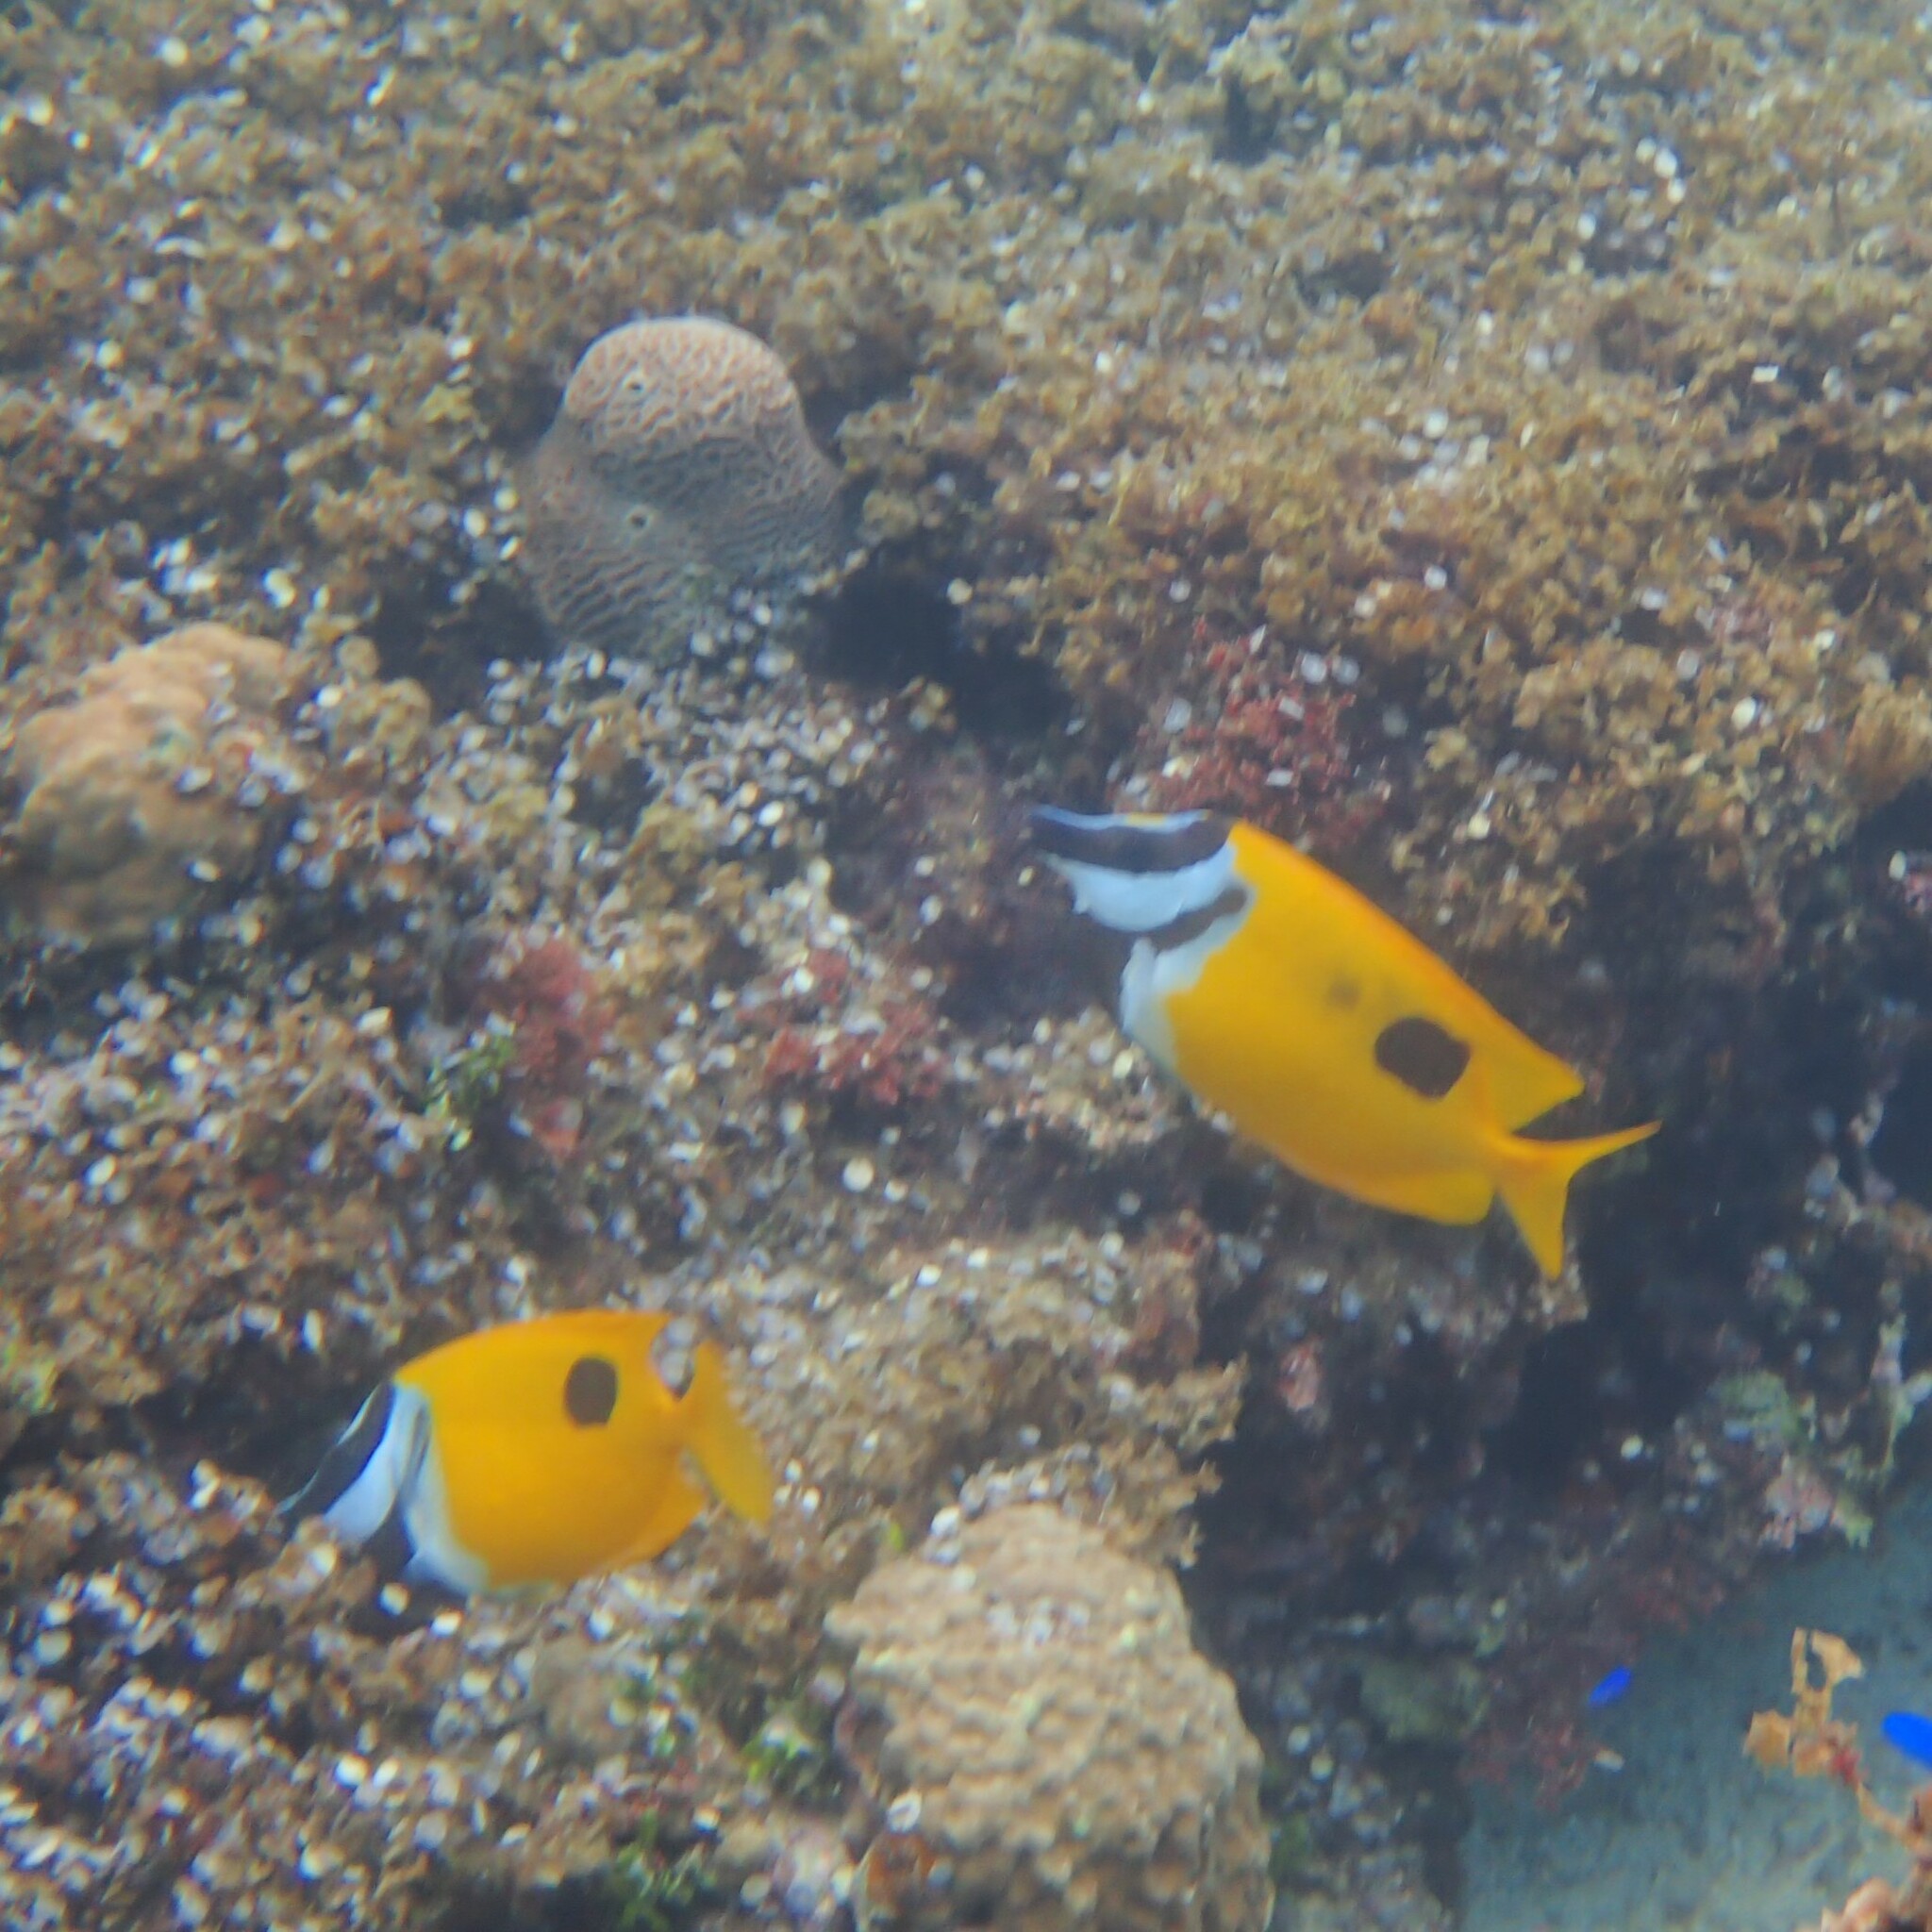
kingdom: Animalia
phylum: Chordata
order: Perciformes
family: Siganidae
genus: Siganus
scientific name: Siganus unimaculatus
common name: Blotched foxface
